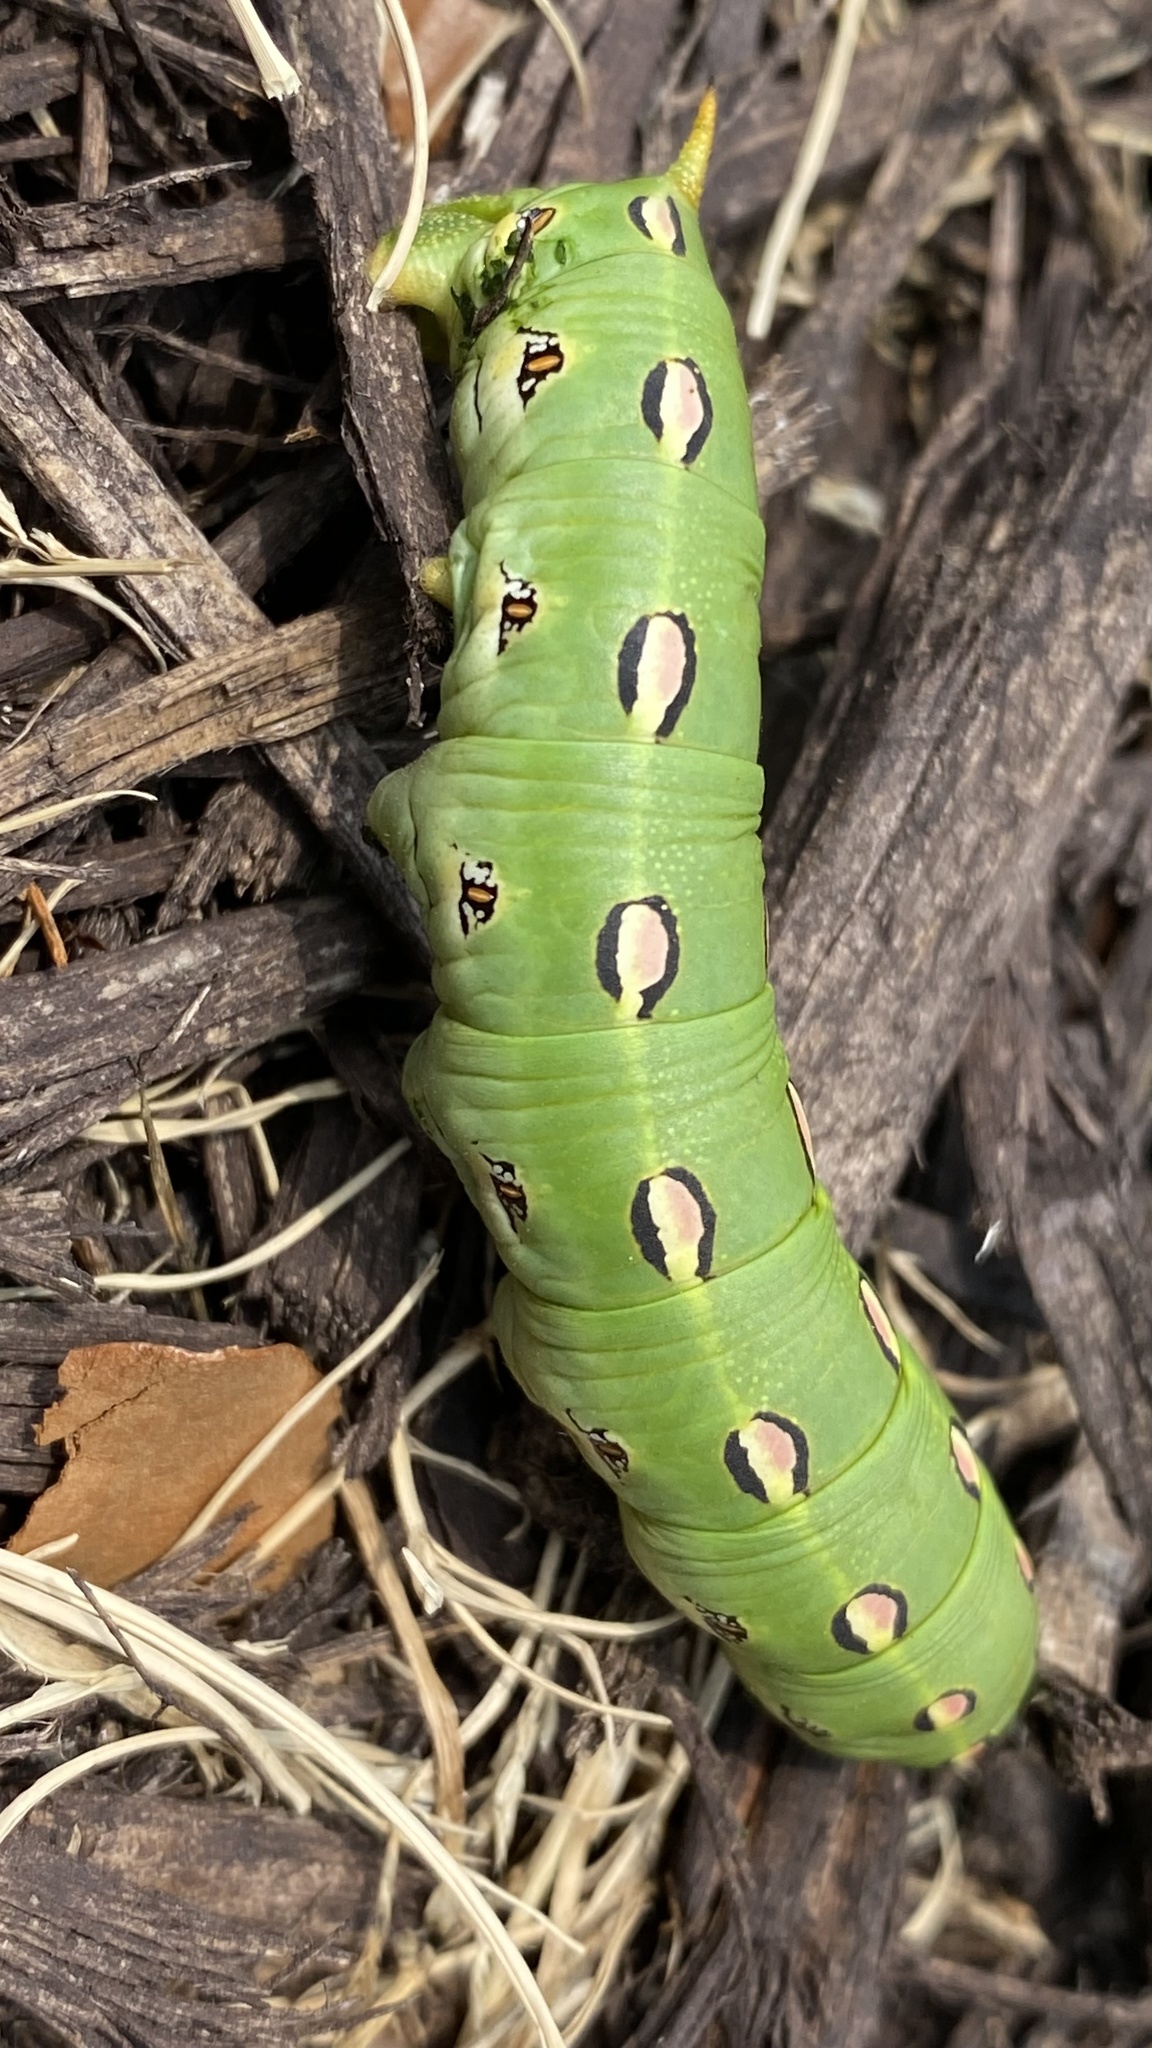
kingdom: Animalia
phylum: Arthropoda
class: Insecta
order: Lepidoptera
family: Sphingidae
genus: Hyles
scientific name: Hyles lineata
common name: White-lined sphinx
